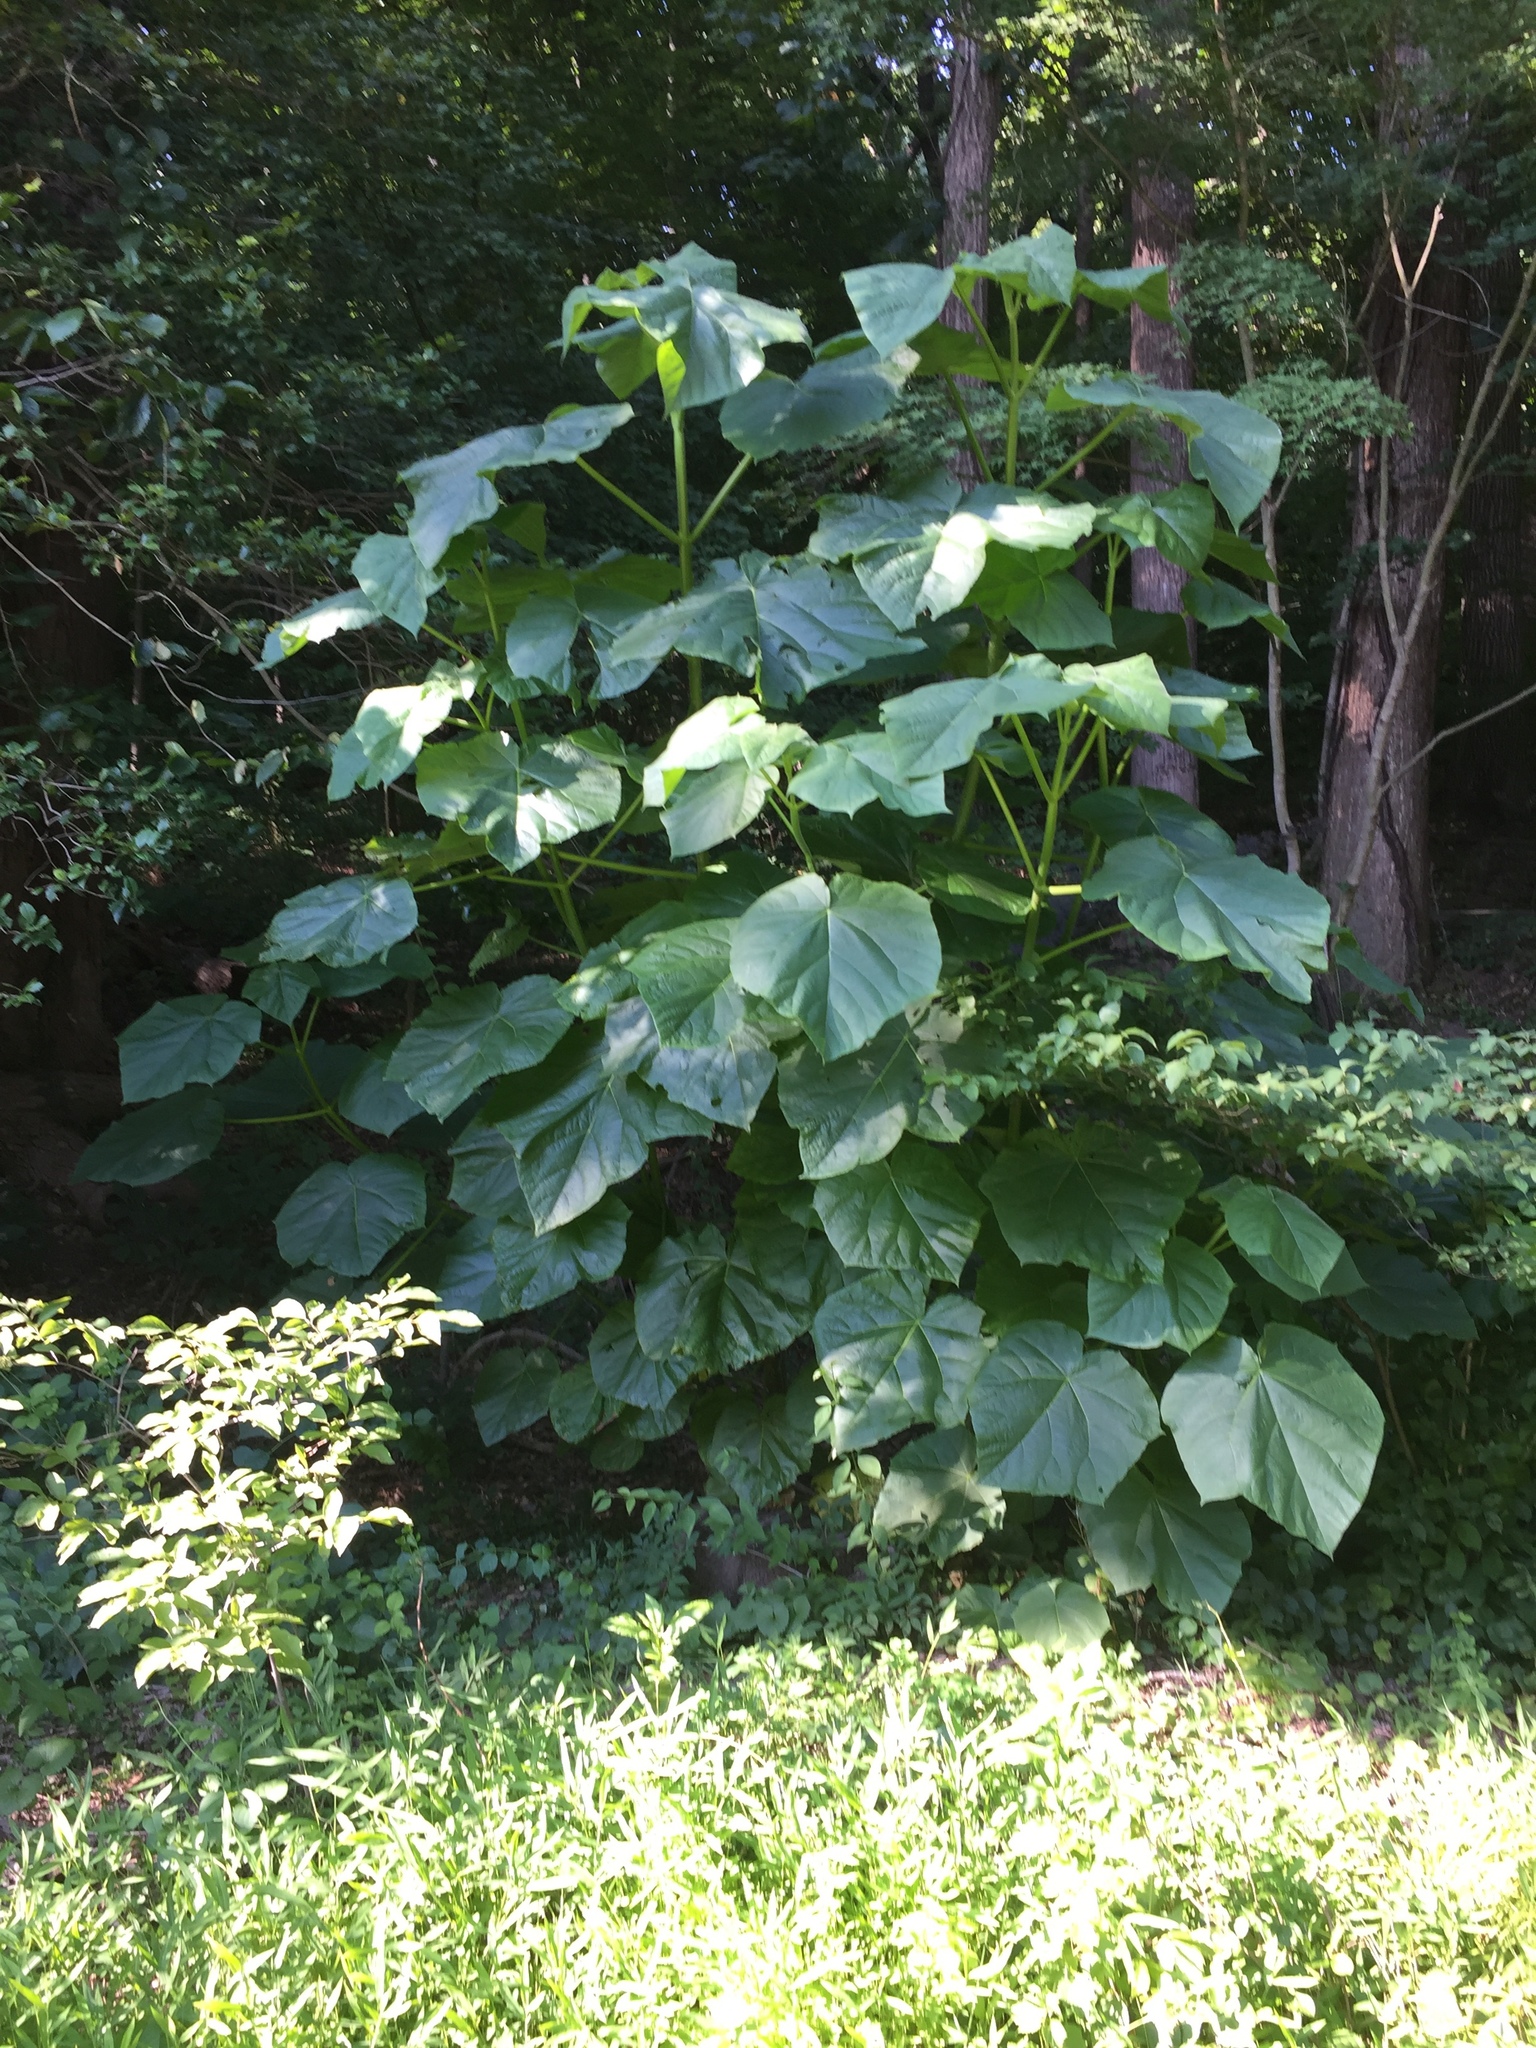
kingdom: Plantae
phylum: Tracheophyta
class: Magnoliopsida
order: Lamiales
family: Paulowniaceae
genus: Paulownia
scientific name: Paulownia tomentosa
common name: Foxglove-tree
